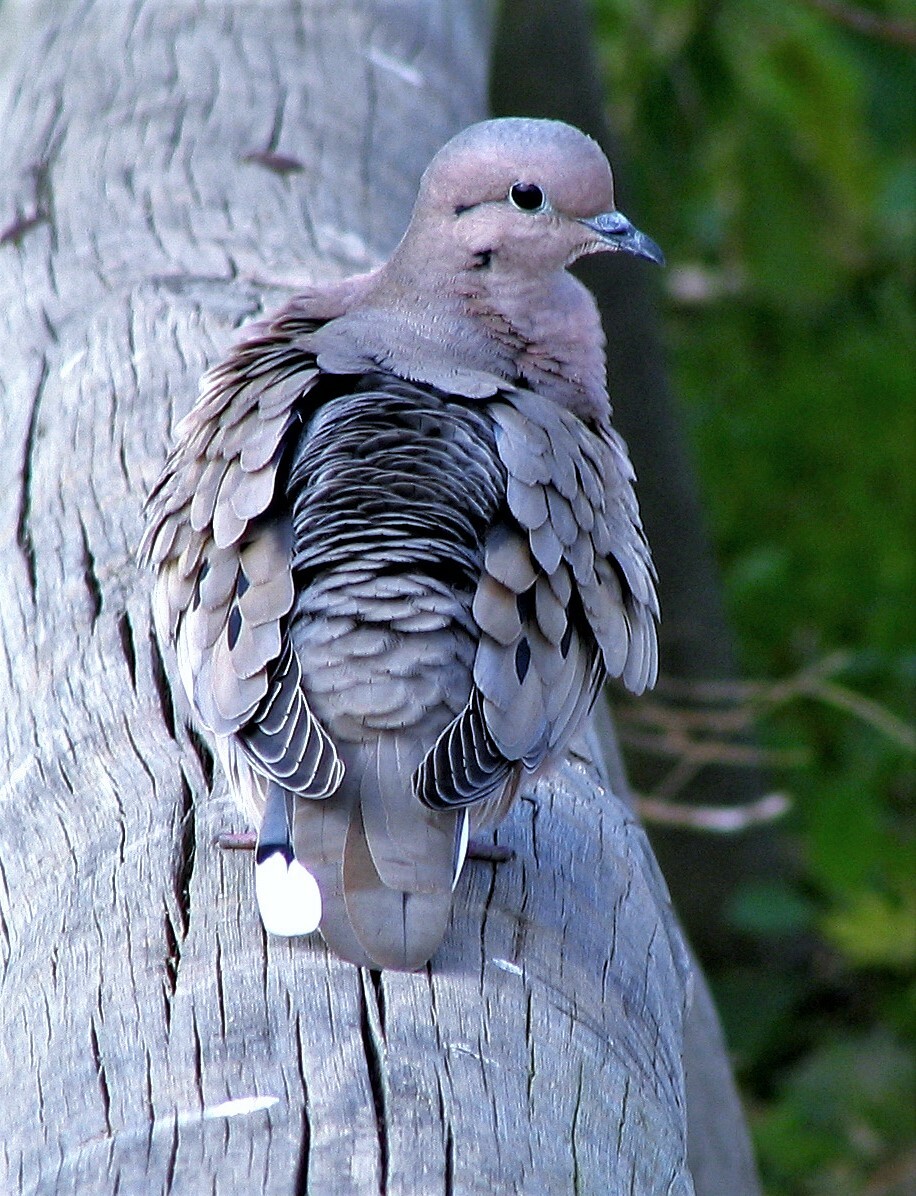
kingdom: Animalia
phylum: Chordata
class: Aves
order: Columbiformes
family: Columbidae
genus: Zenaida
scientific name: Zenaida auriculata
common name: Eared dove
